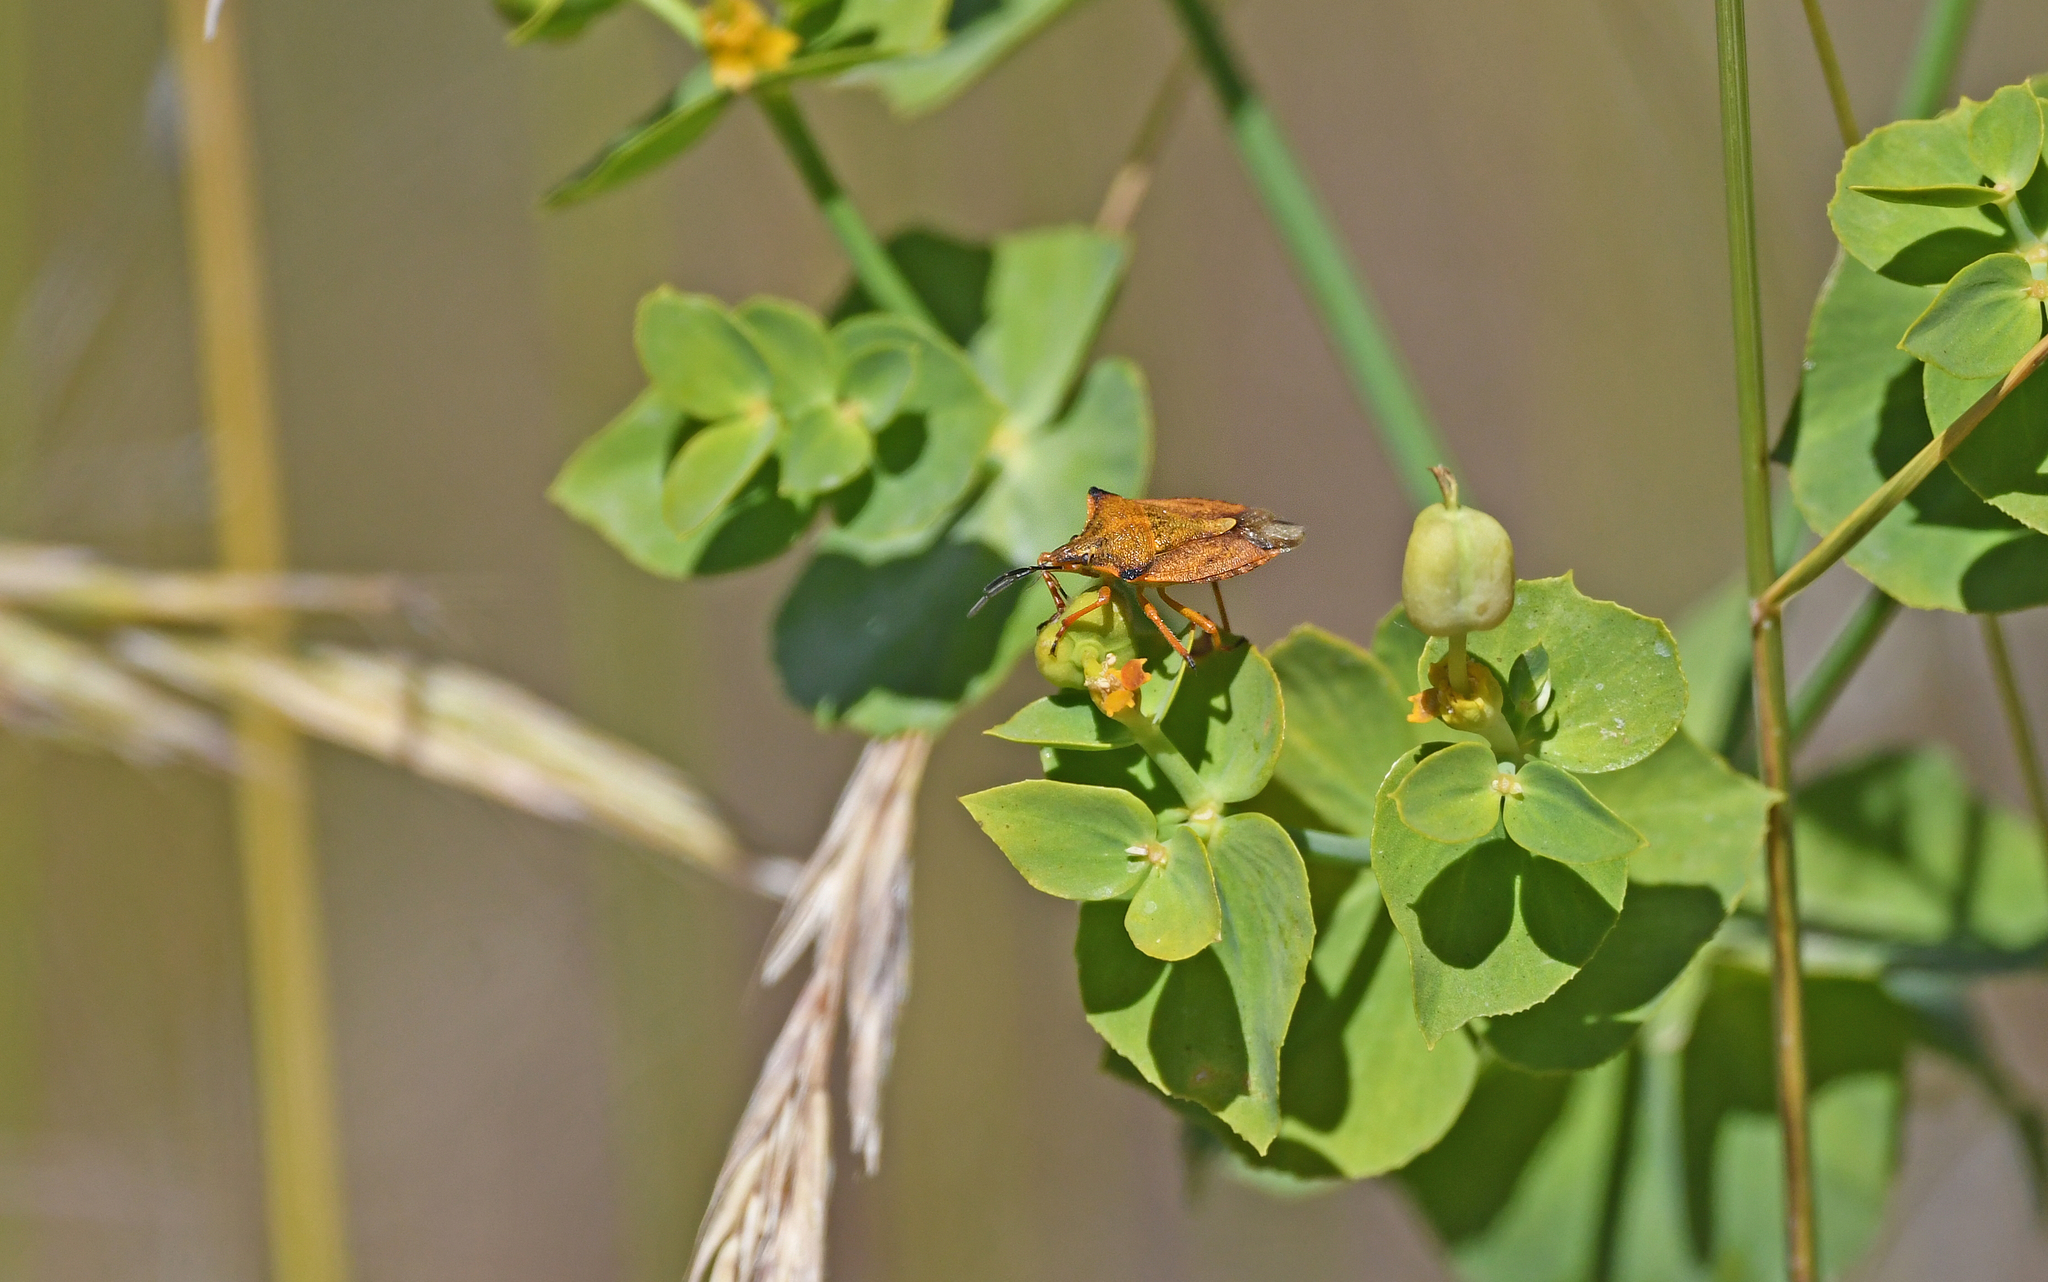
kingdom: Animalia
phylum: Arthropoda
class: Insecta
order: Hemiptera
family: Pentatomidae
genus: Carpocoris
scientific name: Carpocoris mediterraneus
